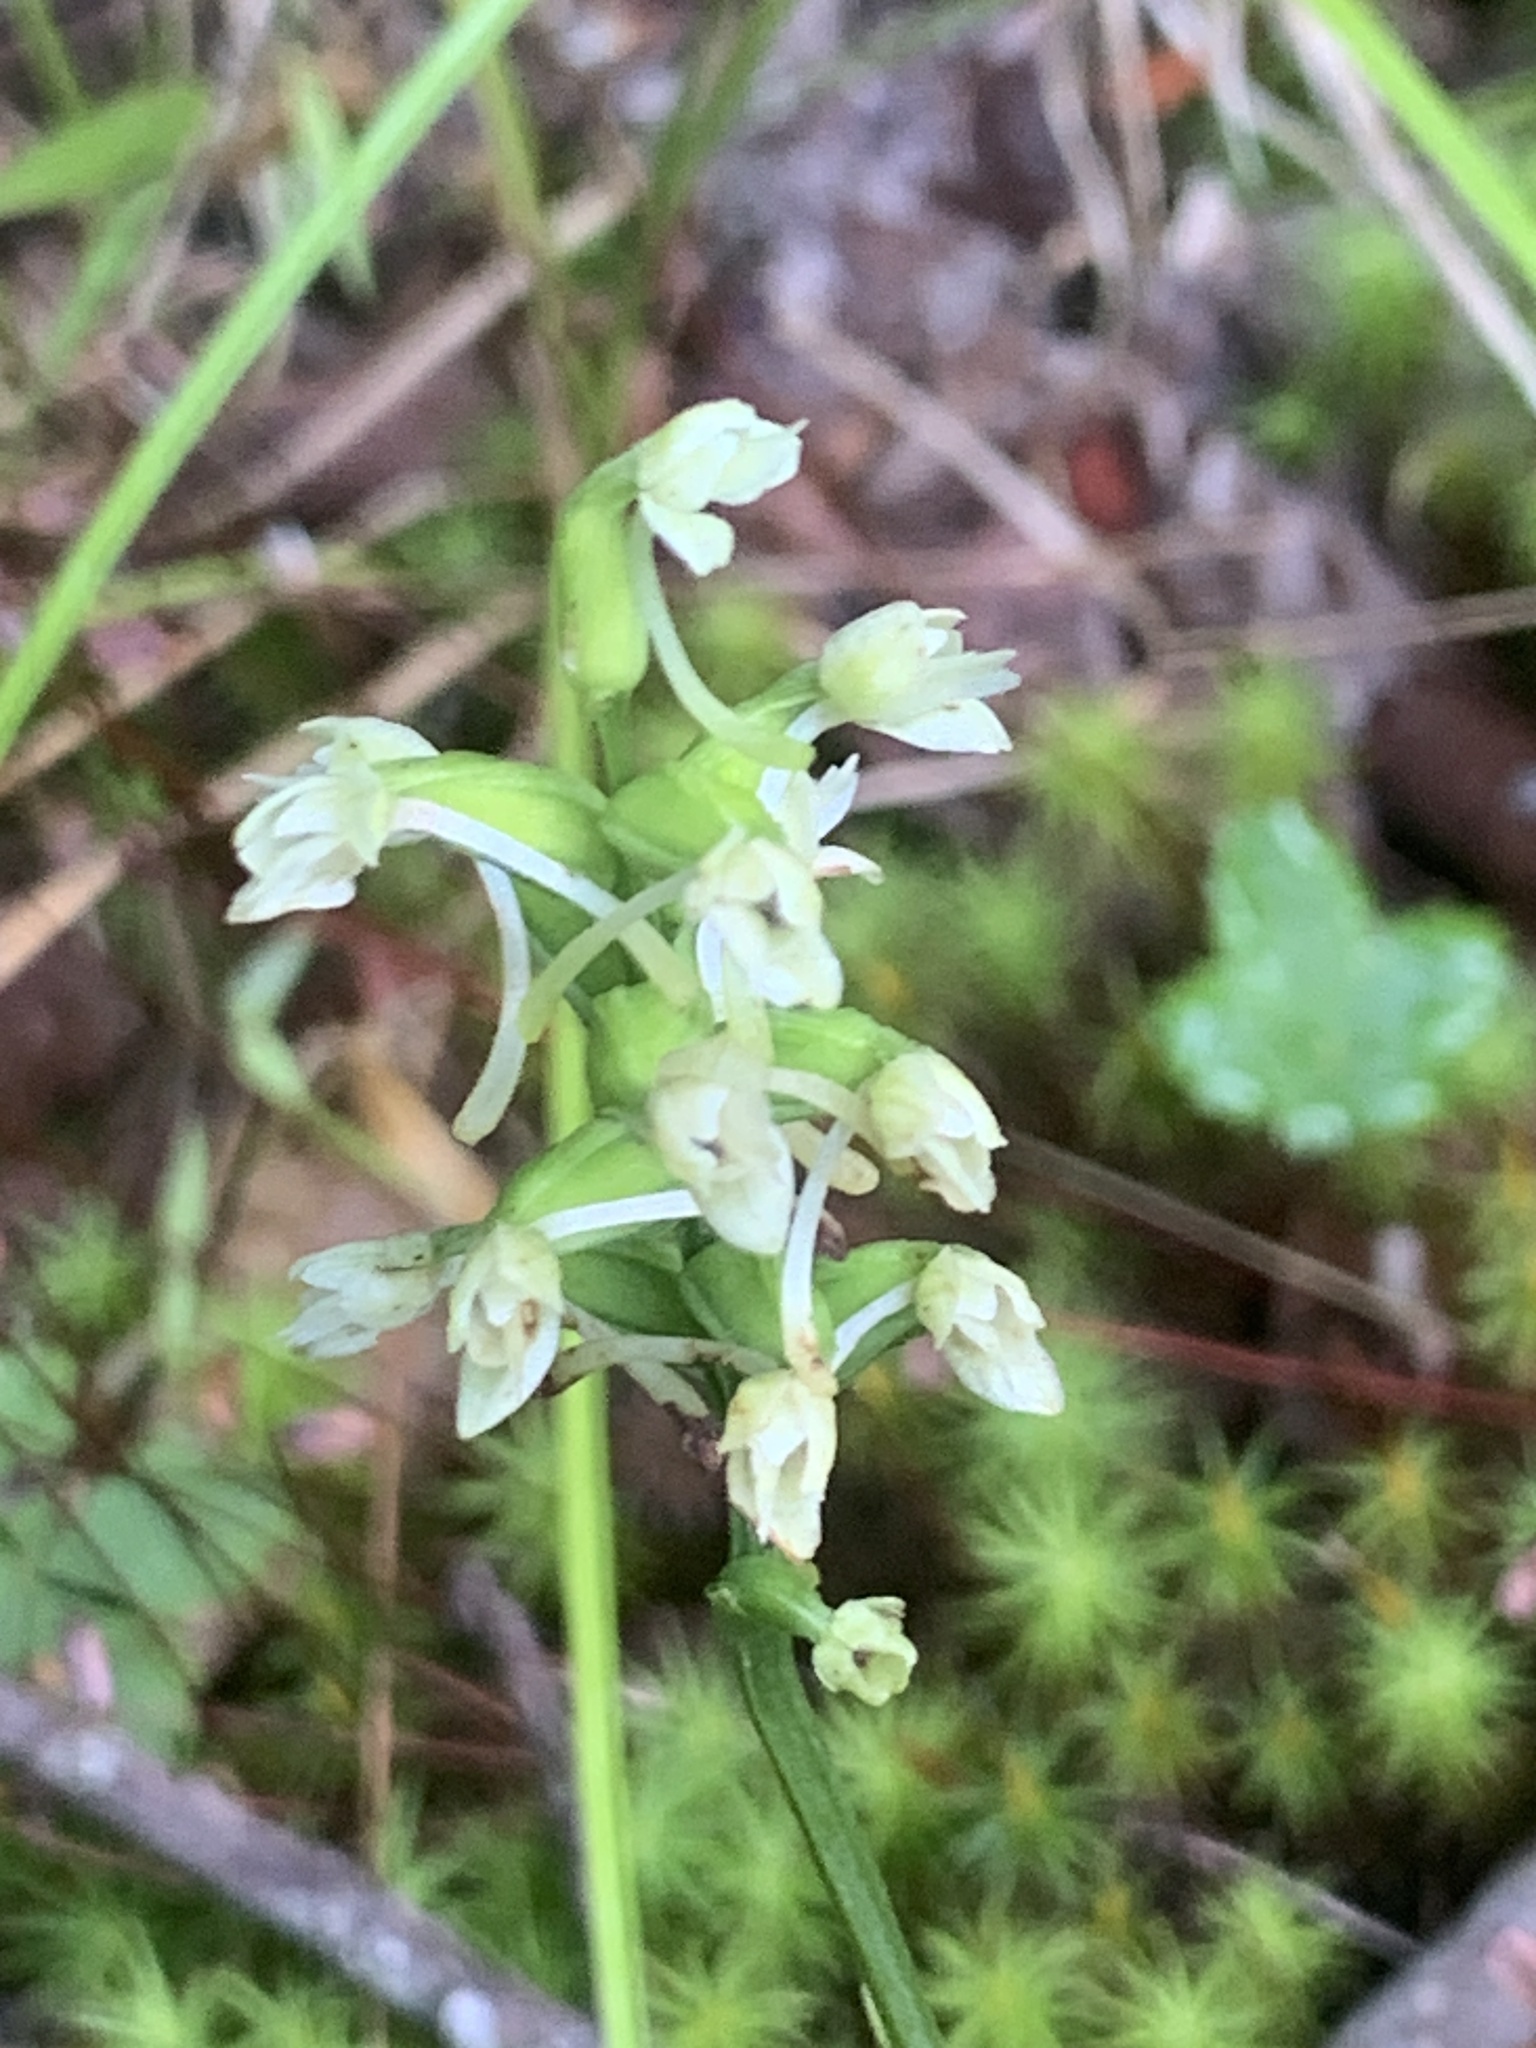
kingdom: Plantae
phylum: Tracheophyta
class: Liliopsida
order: Asparagales
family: Orchidaceae
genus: Platanthera
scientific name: Platanthera clavellata
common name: Club-spur orchid
